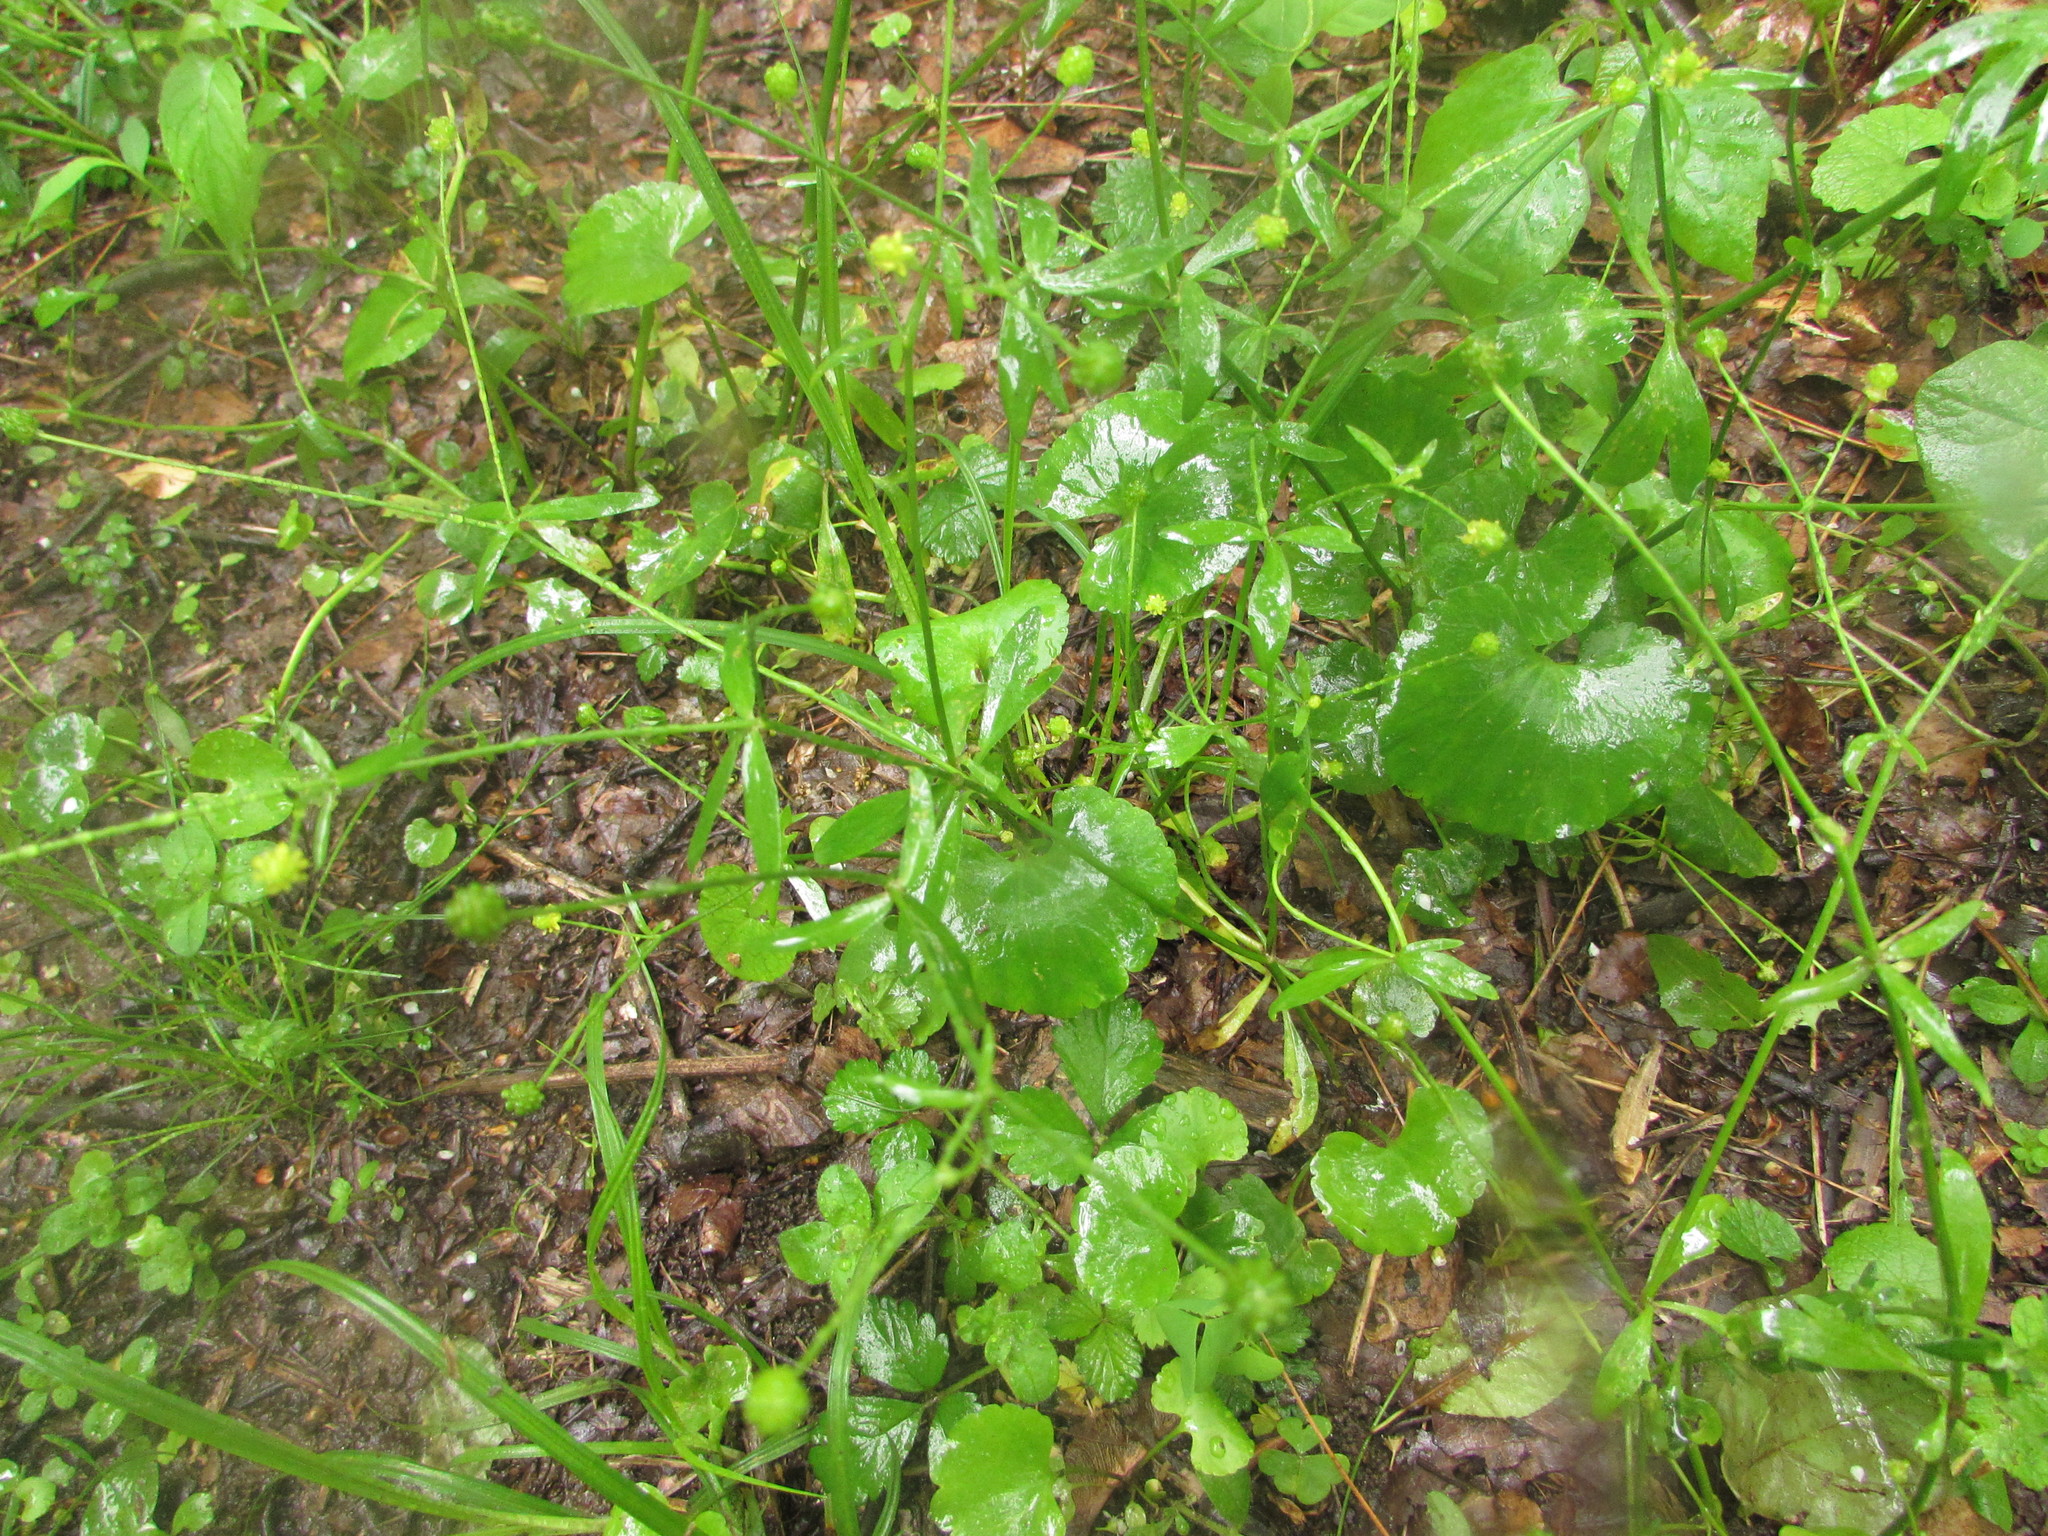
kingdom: Plantae
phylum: Tracheophyta
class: Magnoliopsida
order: Ranunculales
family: Ranunculaceae
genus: Ranunculus
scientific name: Ranunculus abortivus
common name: Early wood buttercup
